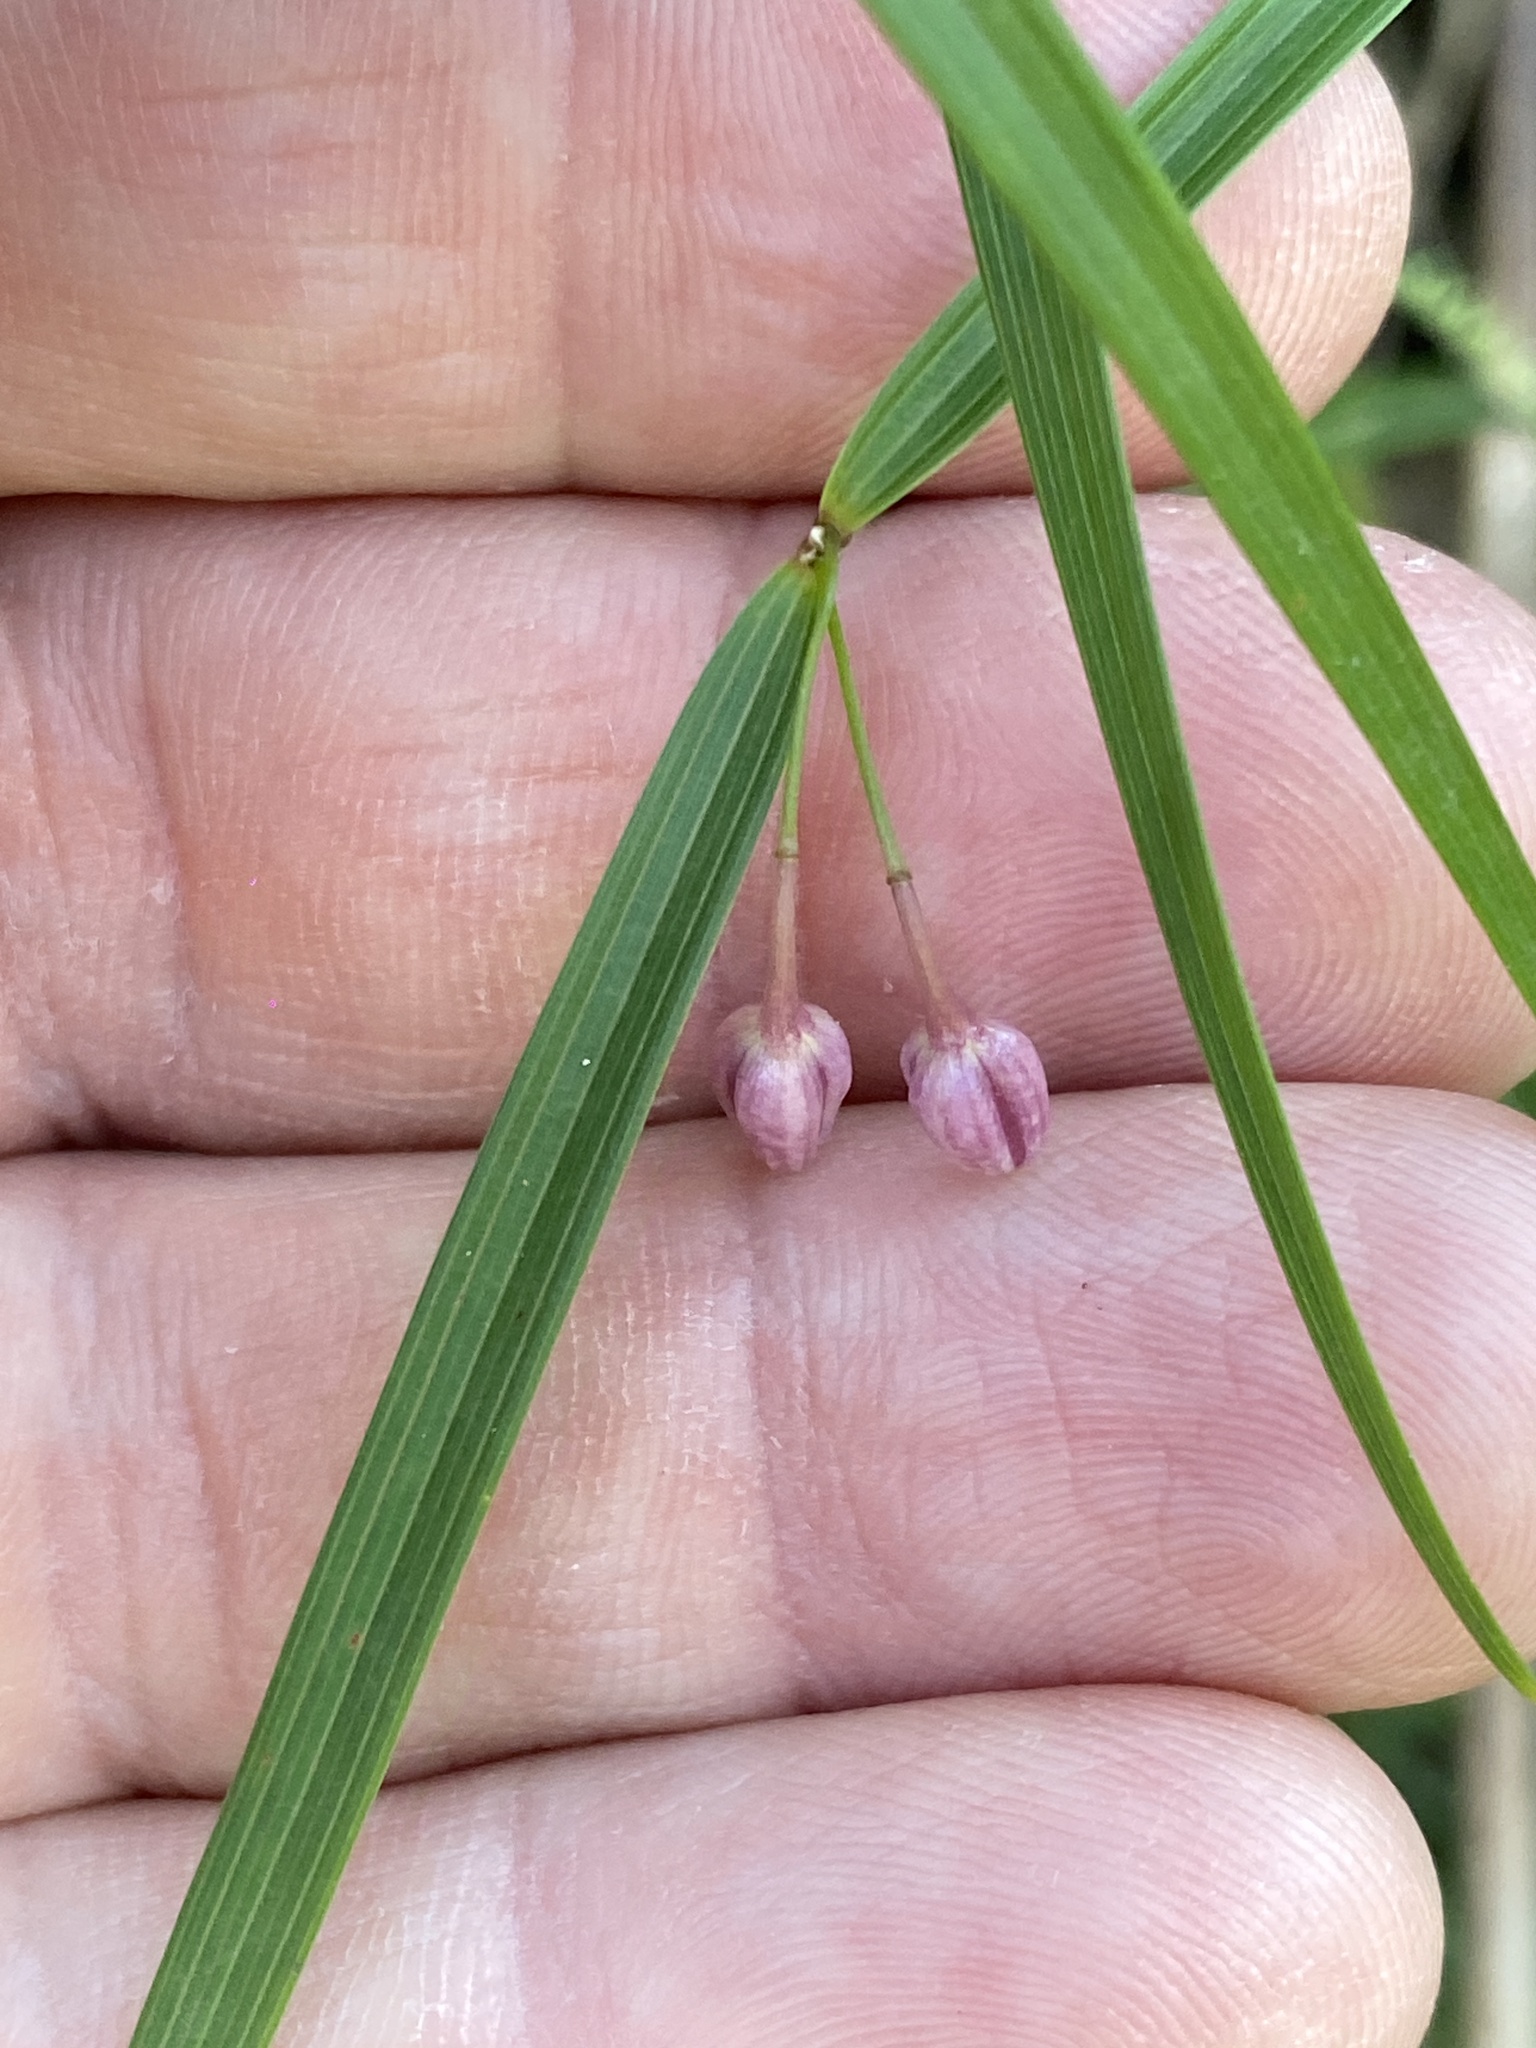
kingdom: Plantae
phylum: Tracheophyta
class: Liliopsida
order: Asparagales
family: Asparagaceae
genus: Eustrephus
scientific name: Eustrephus latifolius
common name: Orangevine
